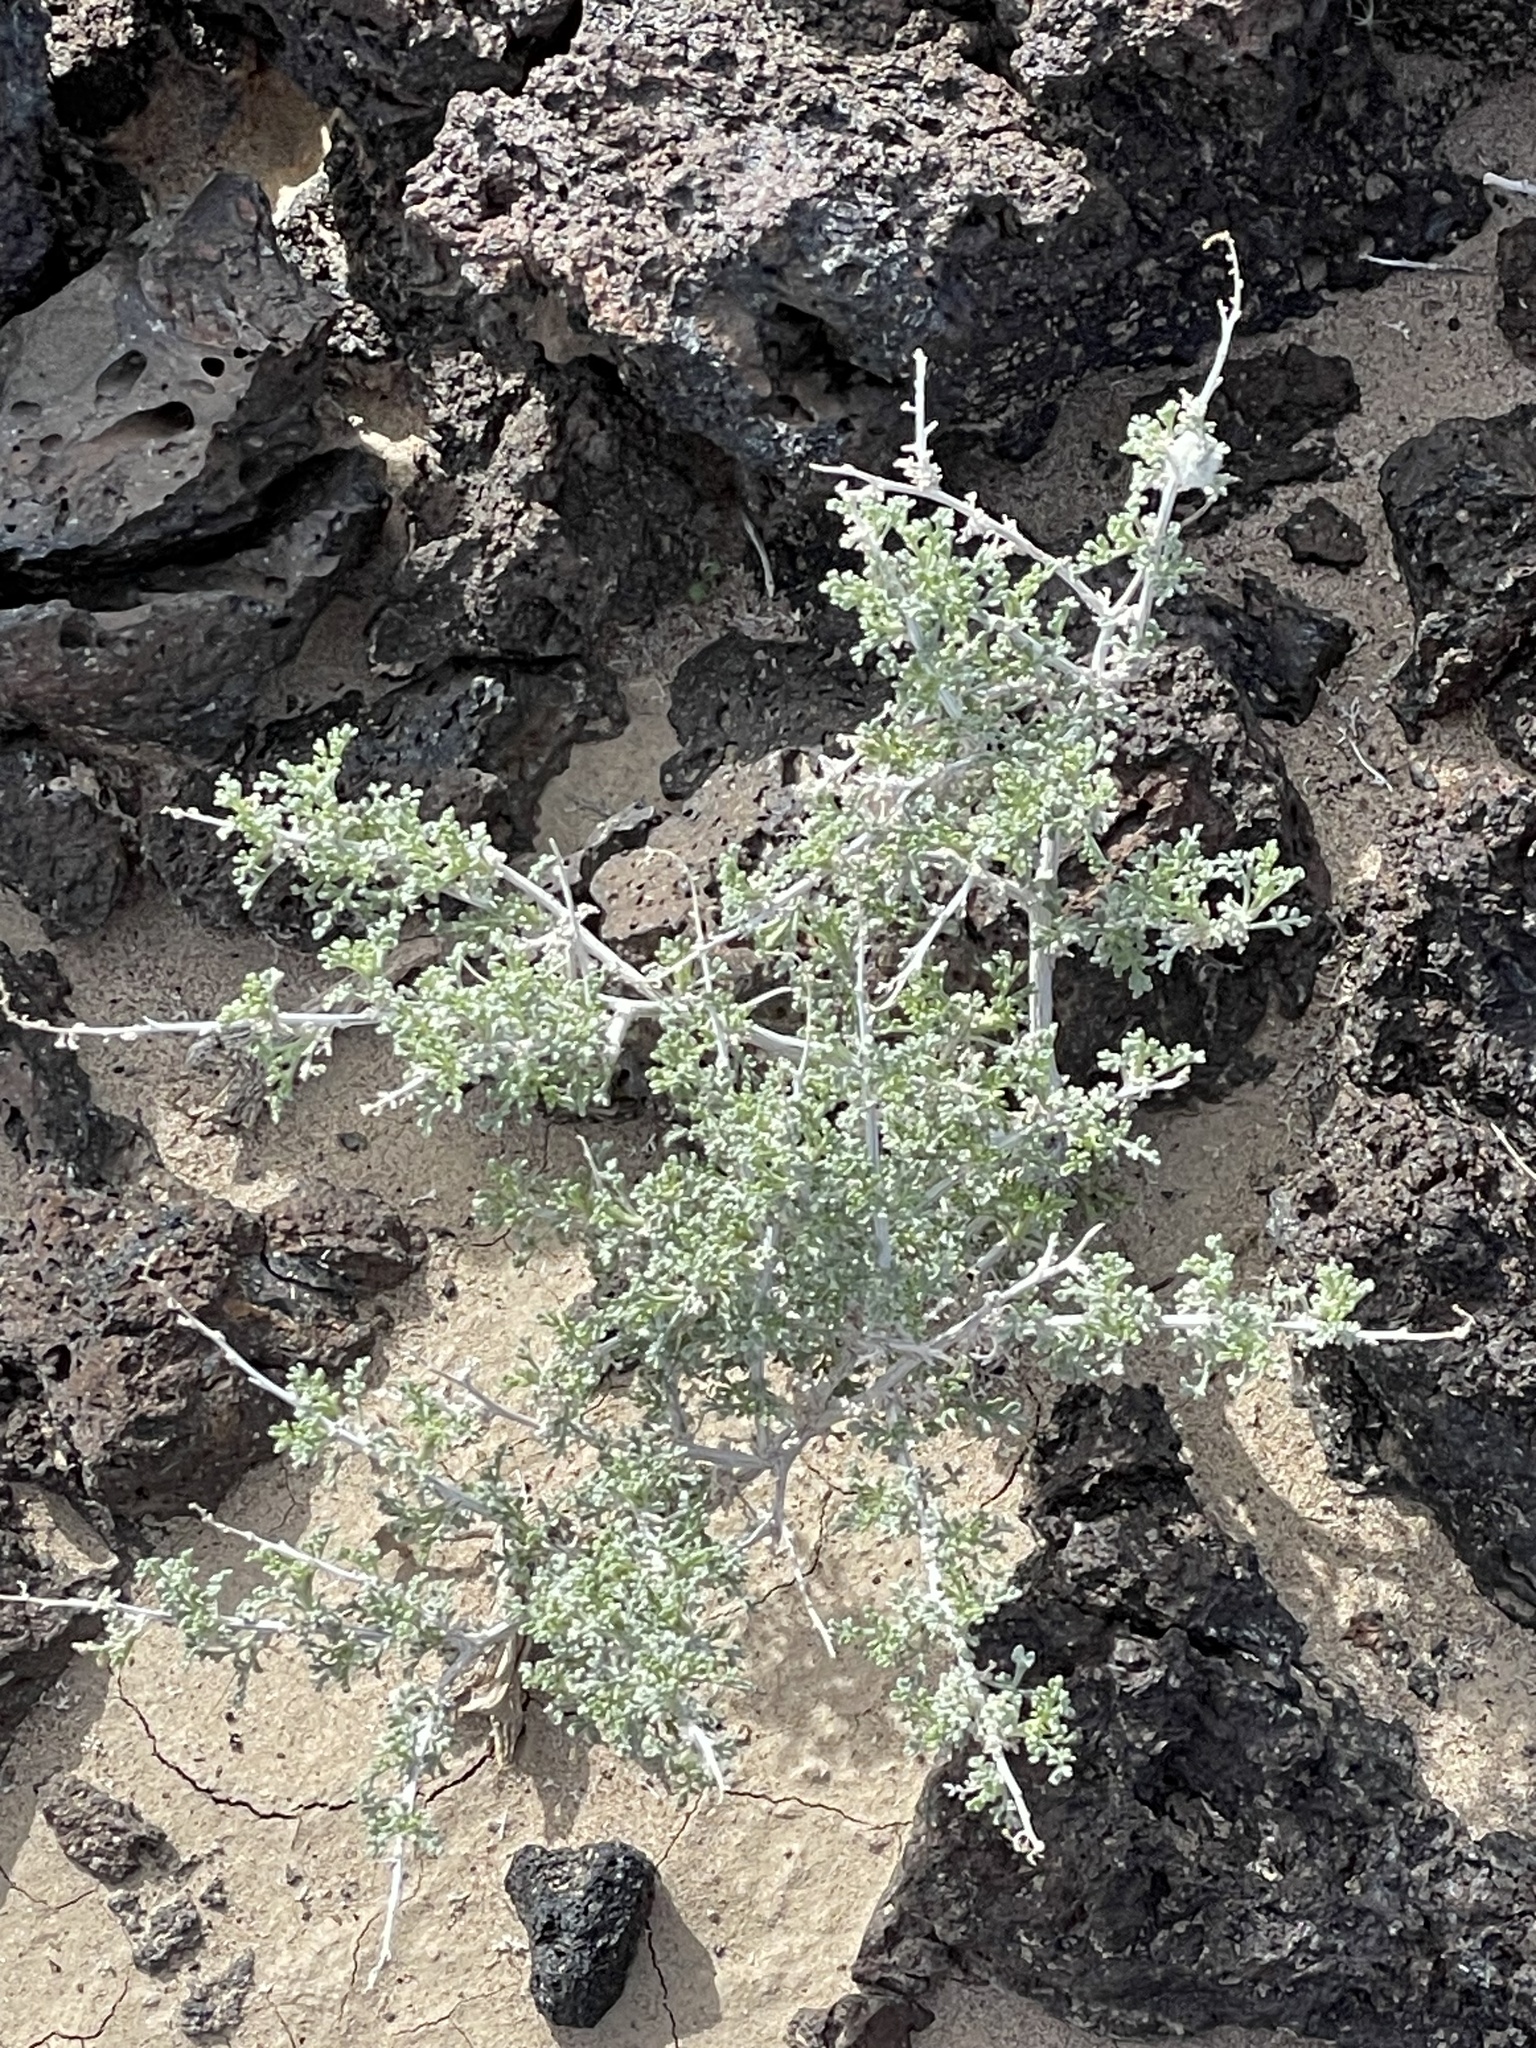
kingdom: Plantae
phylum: Tracheophyta
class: Magnoliopsida
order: Asterales
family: Asteraceae
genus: Ambrosia
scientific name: Ambrosia dumosa
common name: Bur-sage
